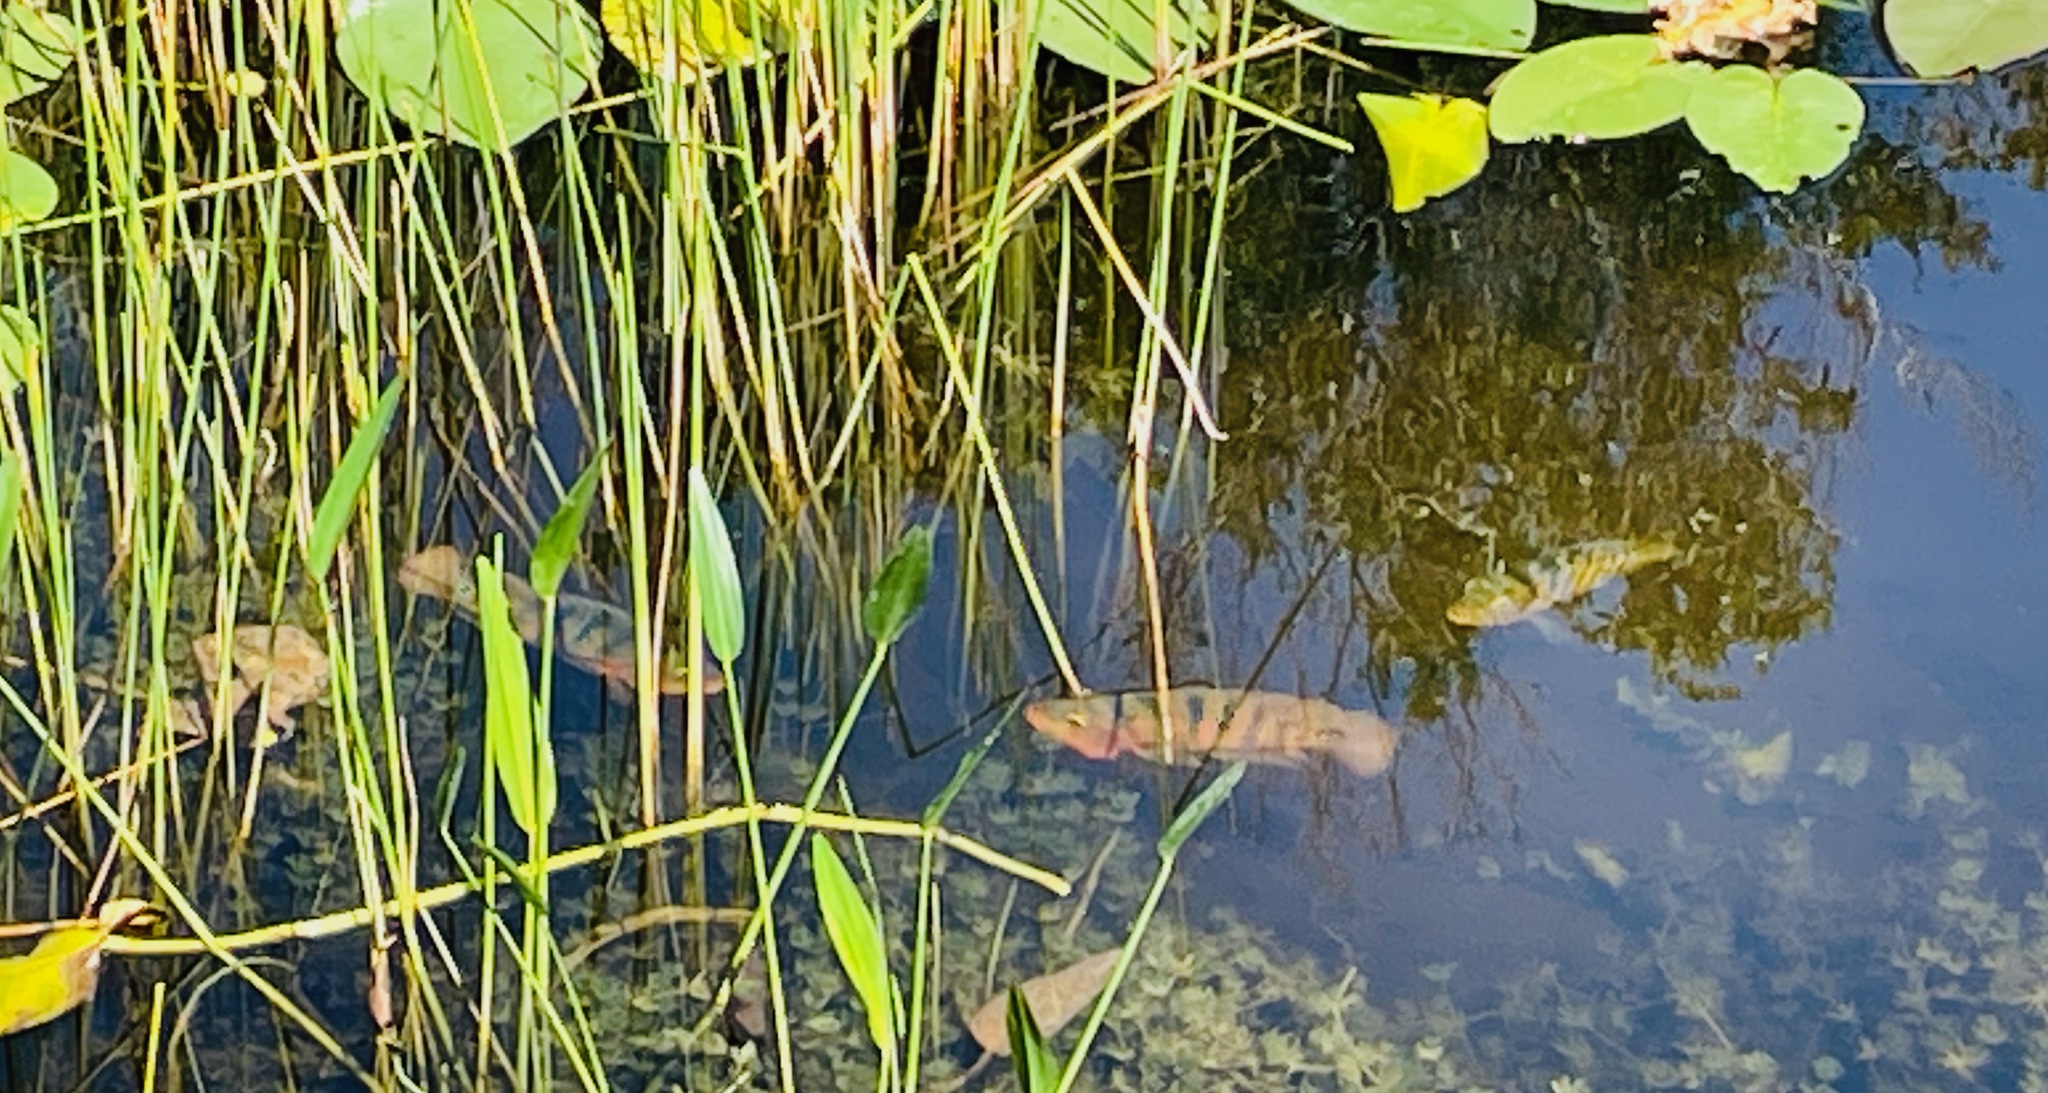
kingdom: Animalia
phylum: Chordata
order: Perciformes
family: Cichlidae
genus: Mayaheros
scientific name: Mayaheros urophthalmus
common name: Mayan cichlid
